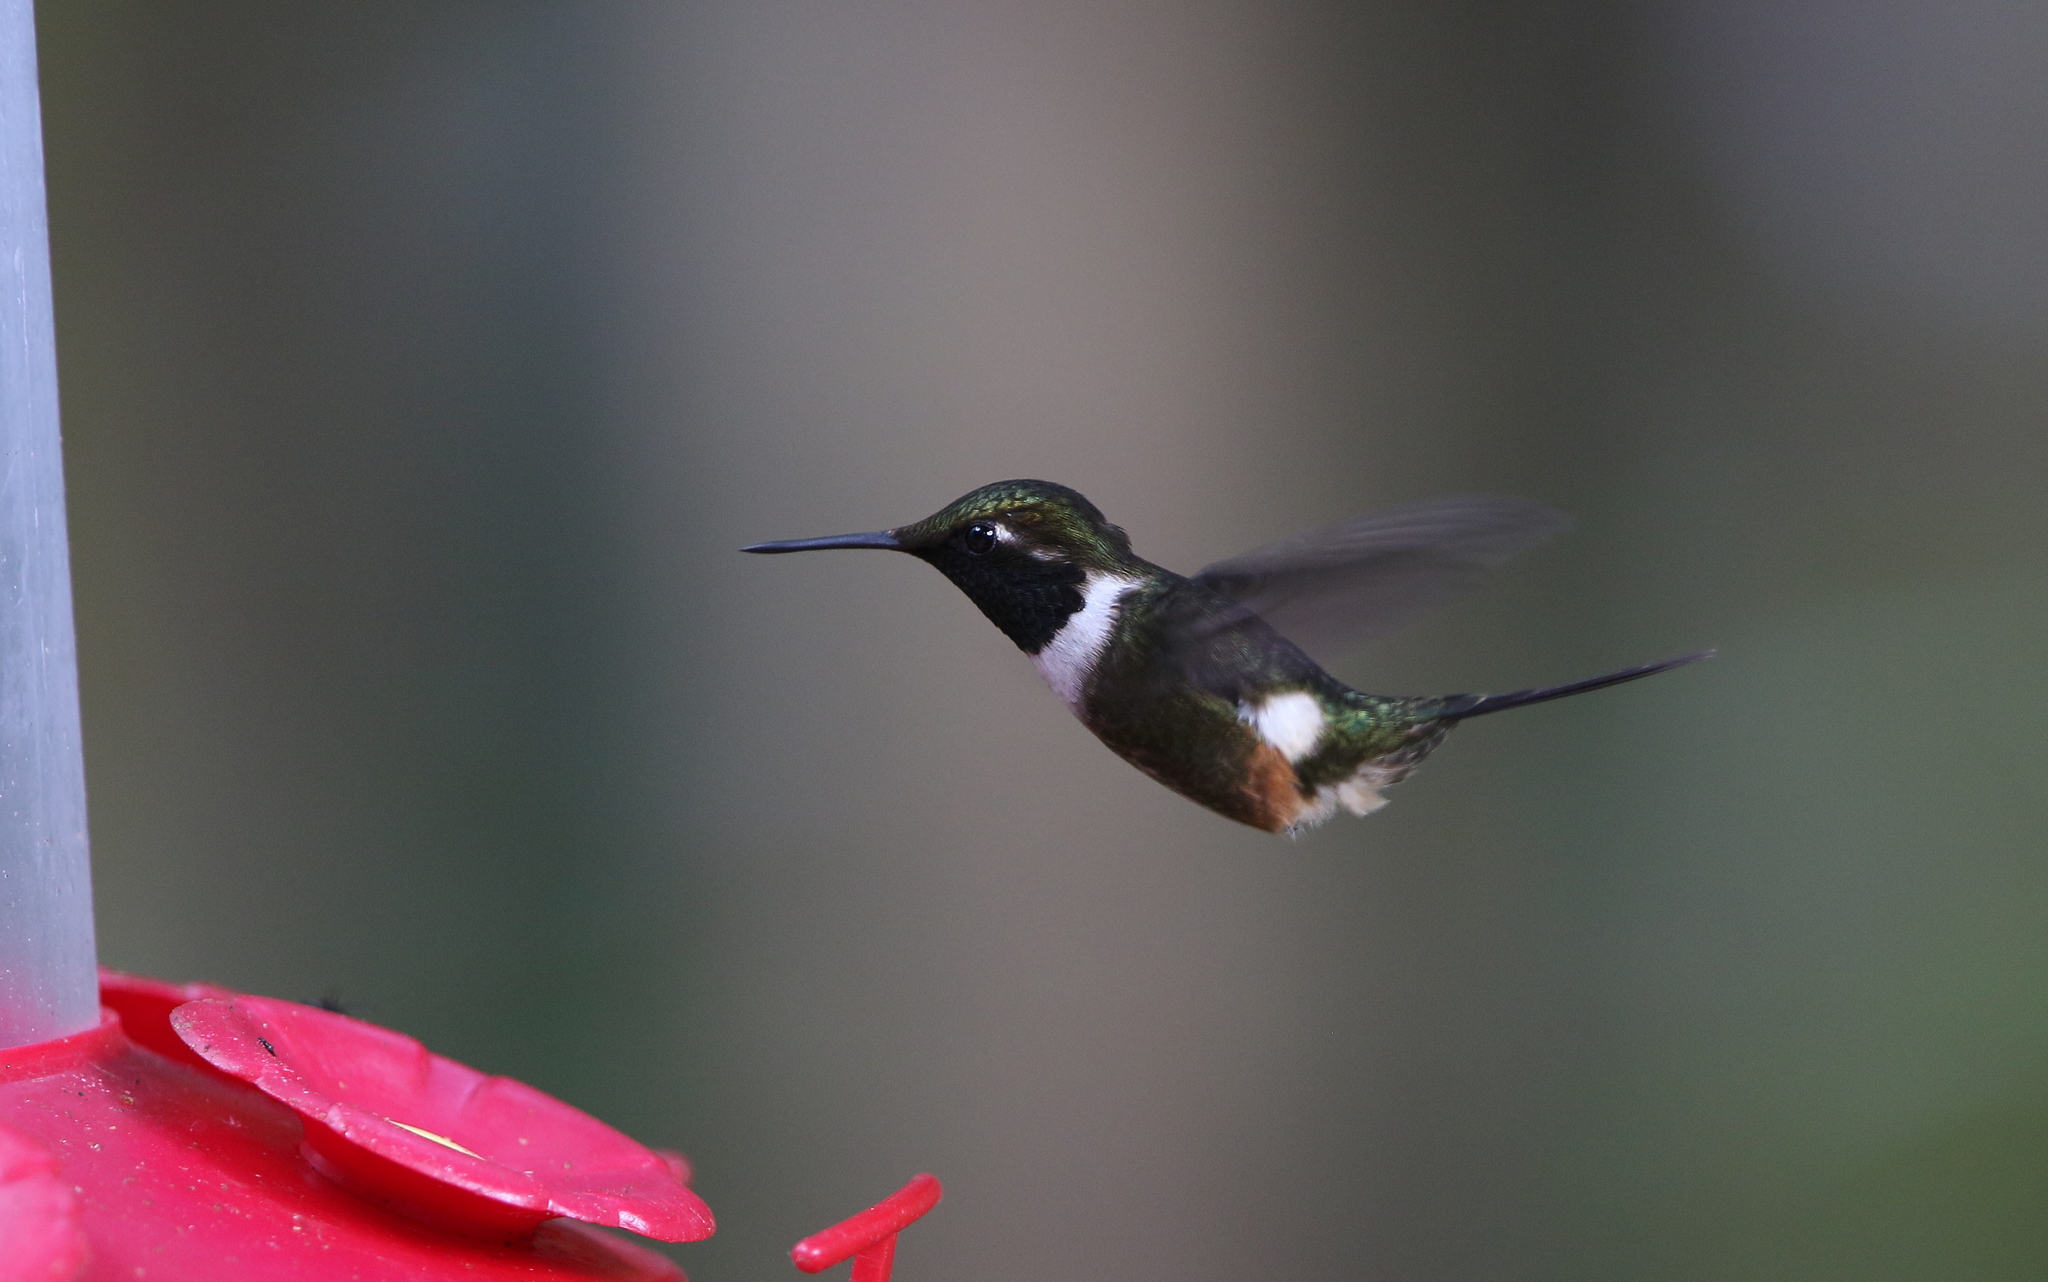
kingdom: Animalia
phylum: Chordata
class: Aves
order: Apodiformes
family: Trochilidae
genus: Calliphlox
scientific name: Calliphlox mitchellii
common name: Purple-throated woodstar
